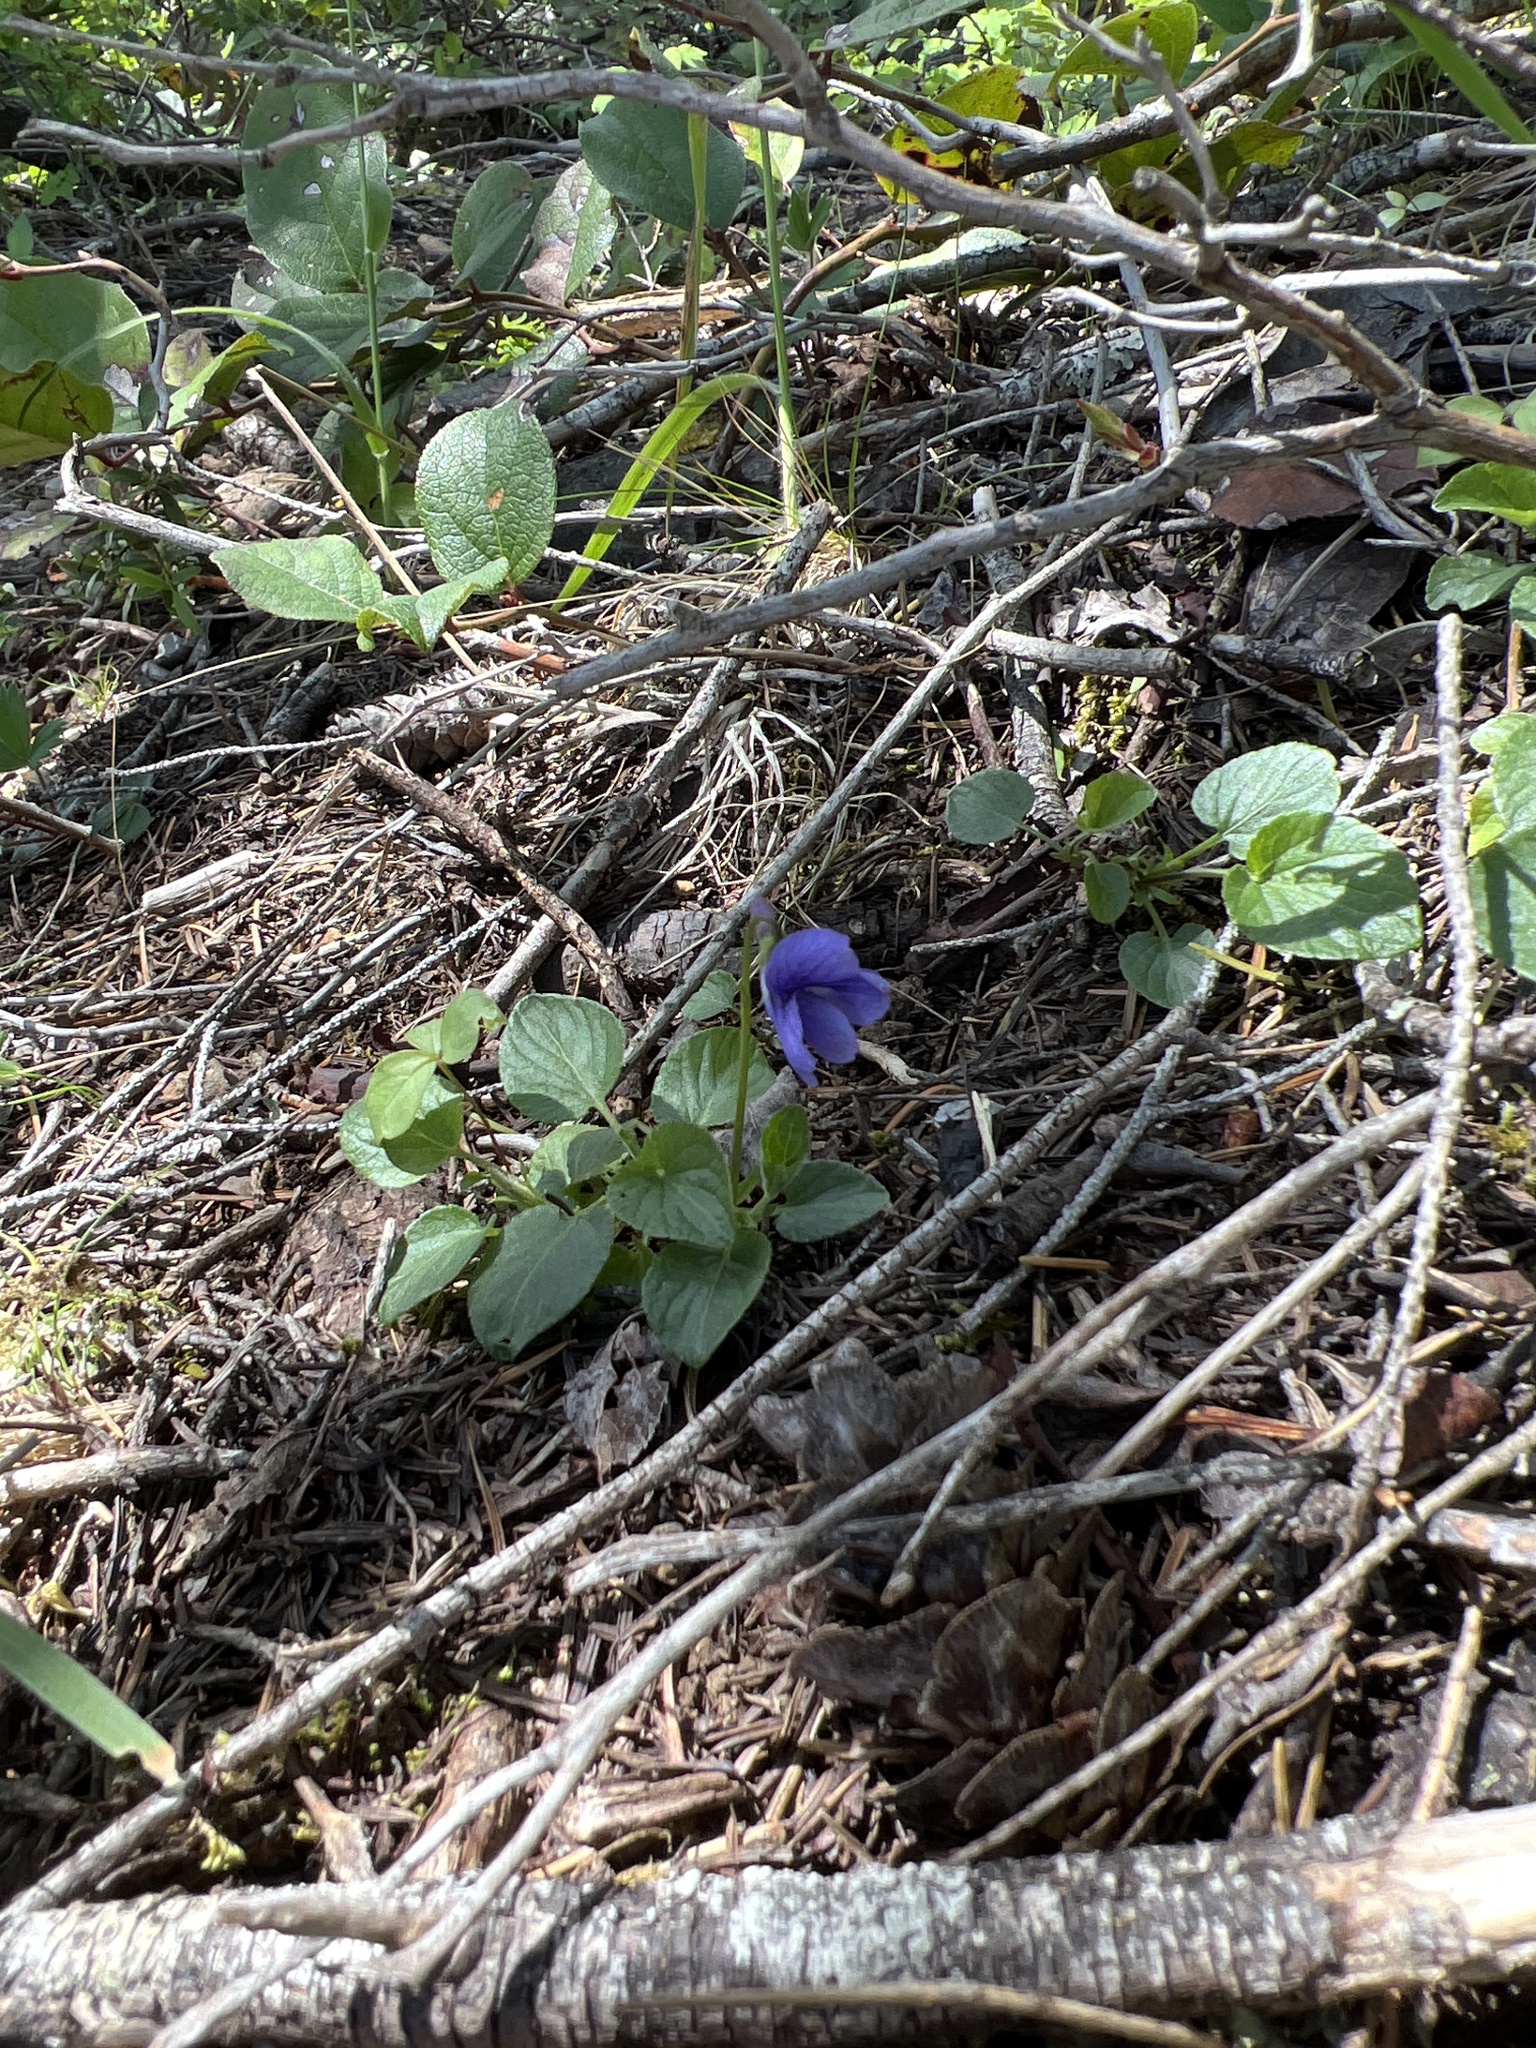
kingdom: Plantae
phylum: Tracheophyta
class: Magnoliopsida
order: Malpighiales
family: Violaceae
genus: Viola
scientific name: Viola adunca
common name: Sand violet
